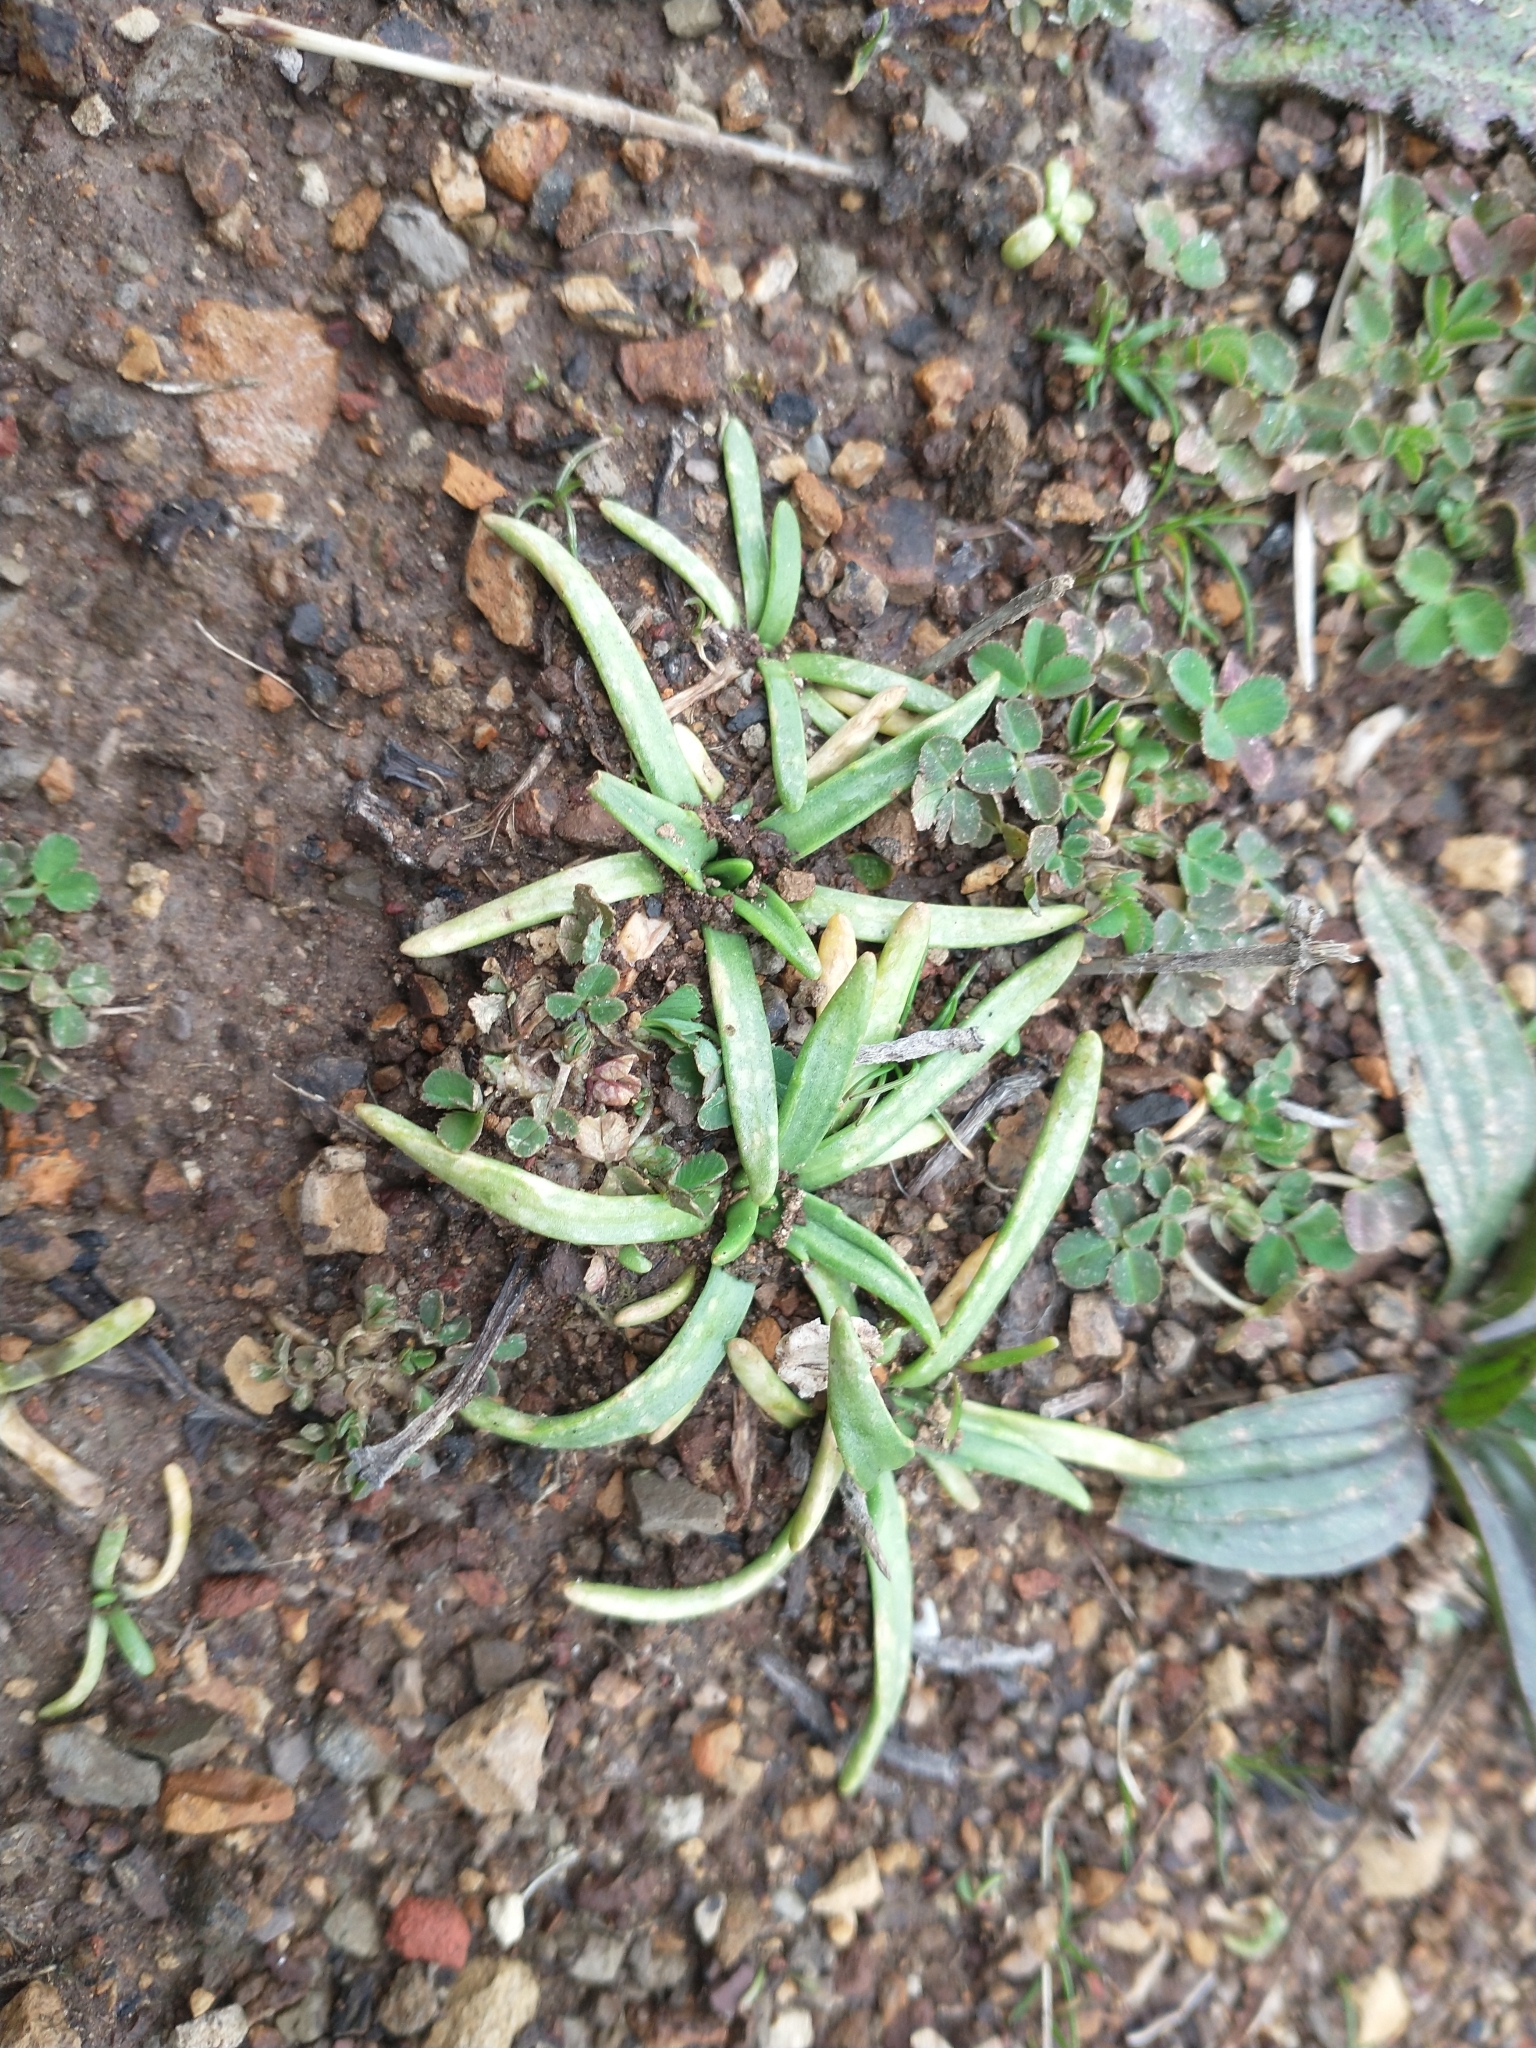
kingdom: Plantae
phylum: Tracheophyta
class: Magnoliopsida
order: Lamiales
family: Plantaginaceae
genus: Plantago
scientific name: Plantago maritima
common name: Sea plantain
